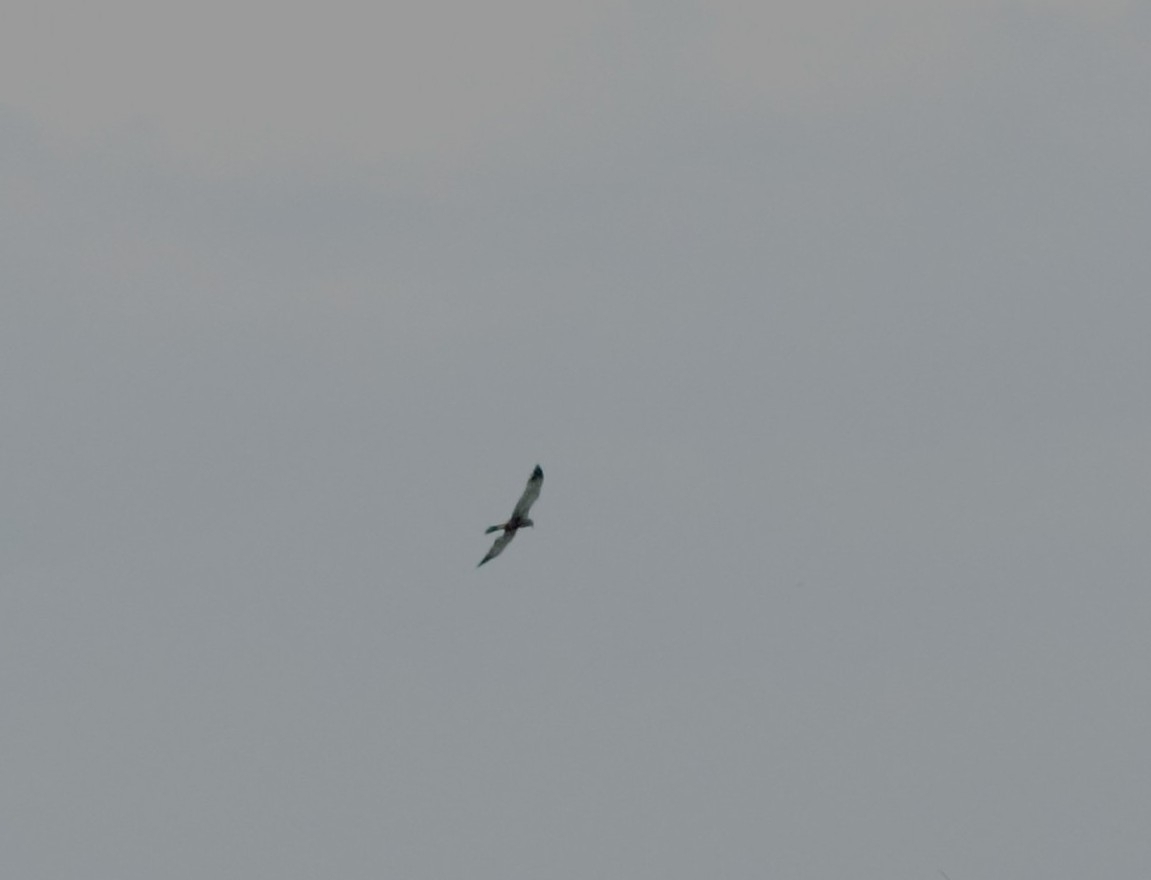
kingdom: Animalia
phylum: Chordata
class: Aves
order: Accipitriformes
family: Accipitridae
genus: Circus
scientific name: Circus aeruginosus
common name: Western marsh harrier
